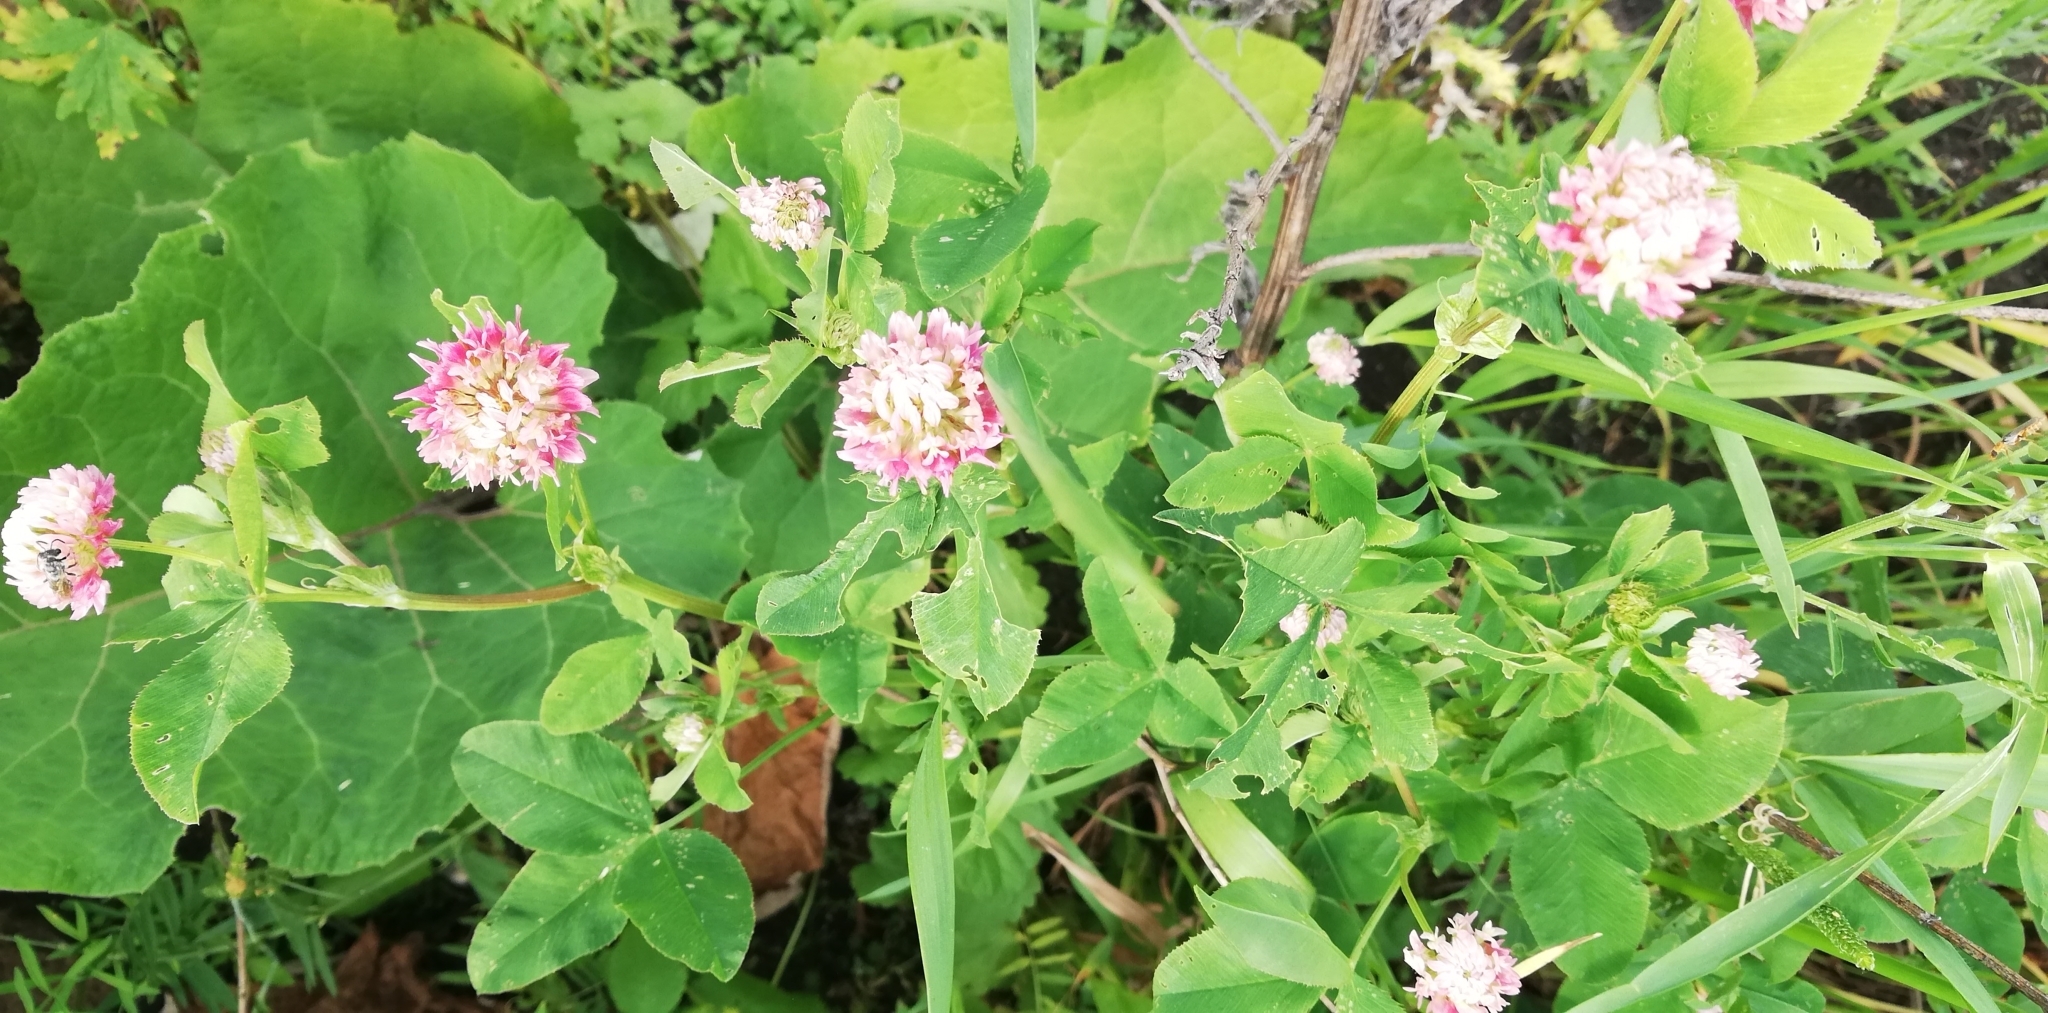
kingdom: Plantae
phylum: Tracheophyta
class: Magnoliopsida
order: Fabales
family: Fabaceae
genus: Trifolium
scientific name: Trifolium hybridum
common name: Alsike clover
